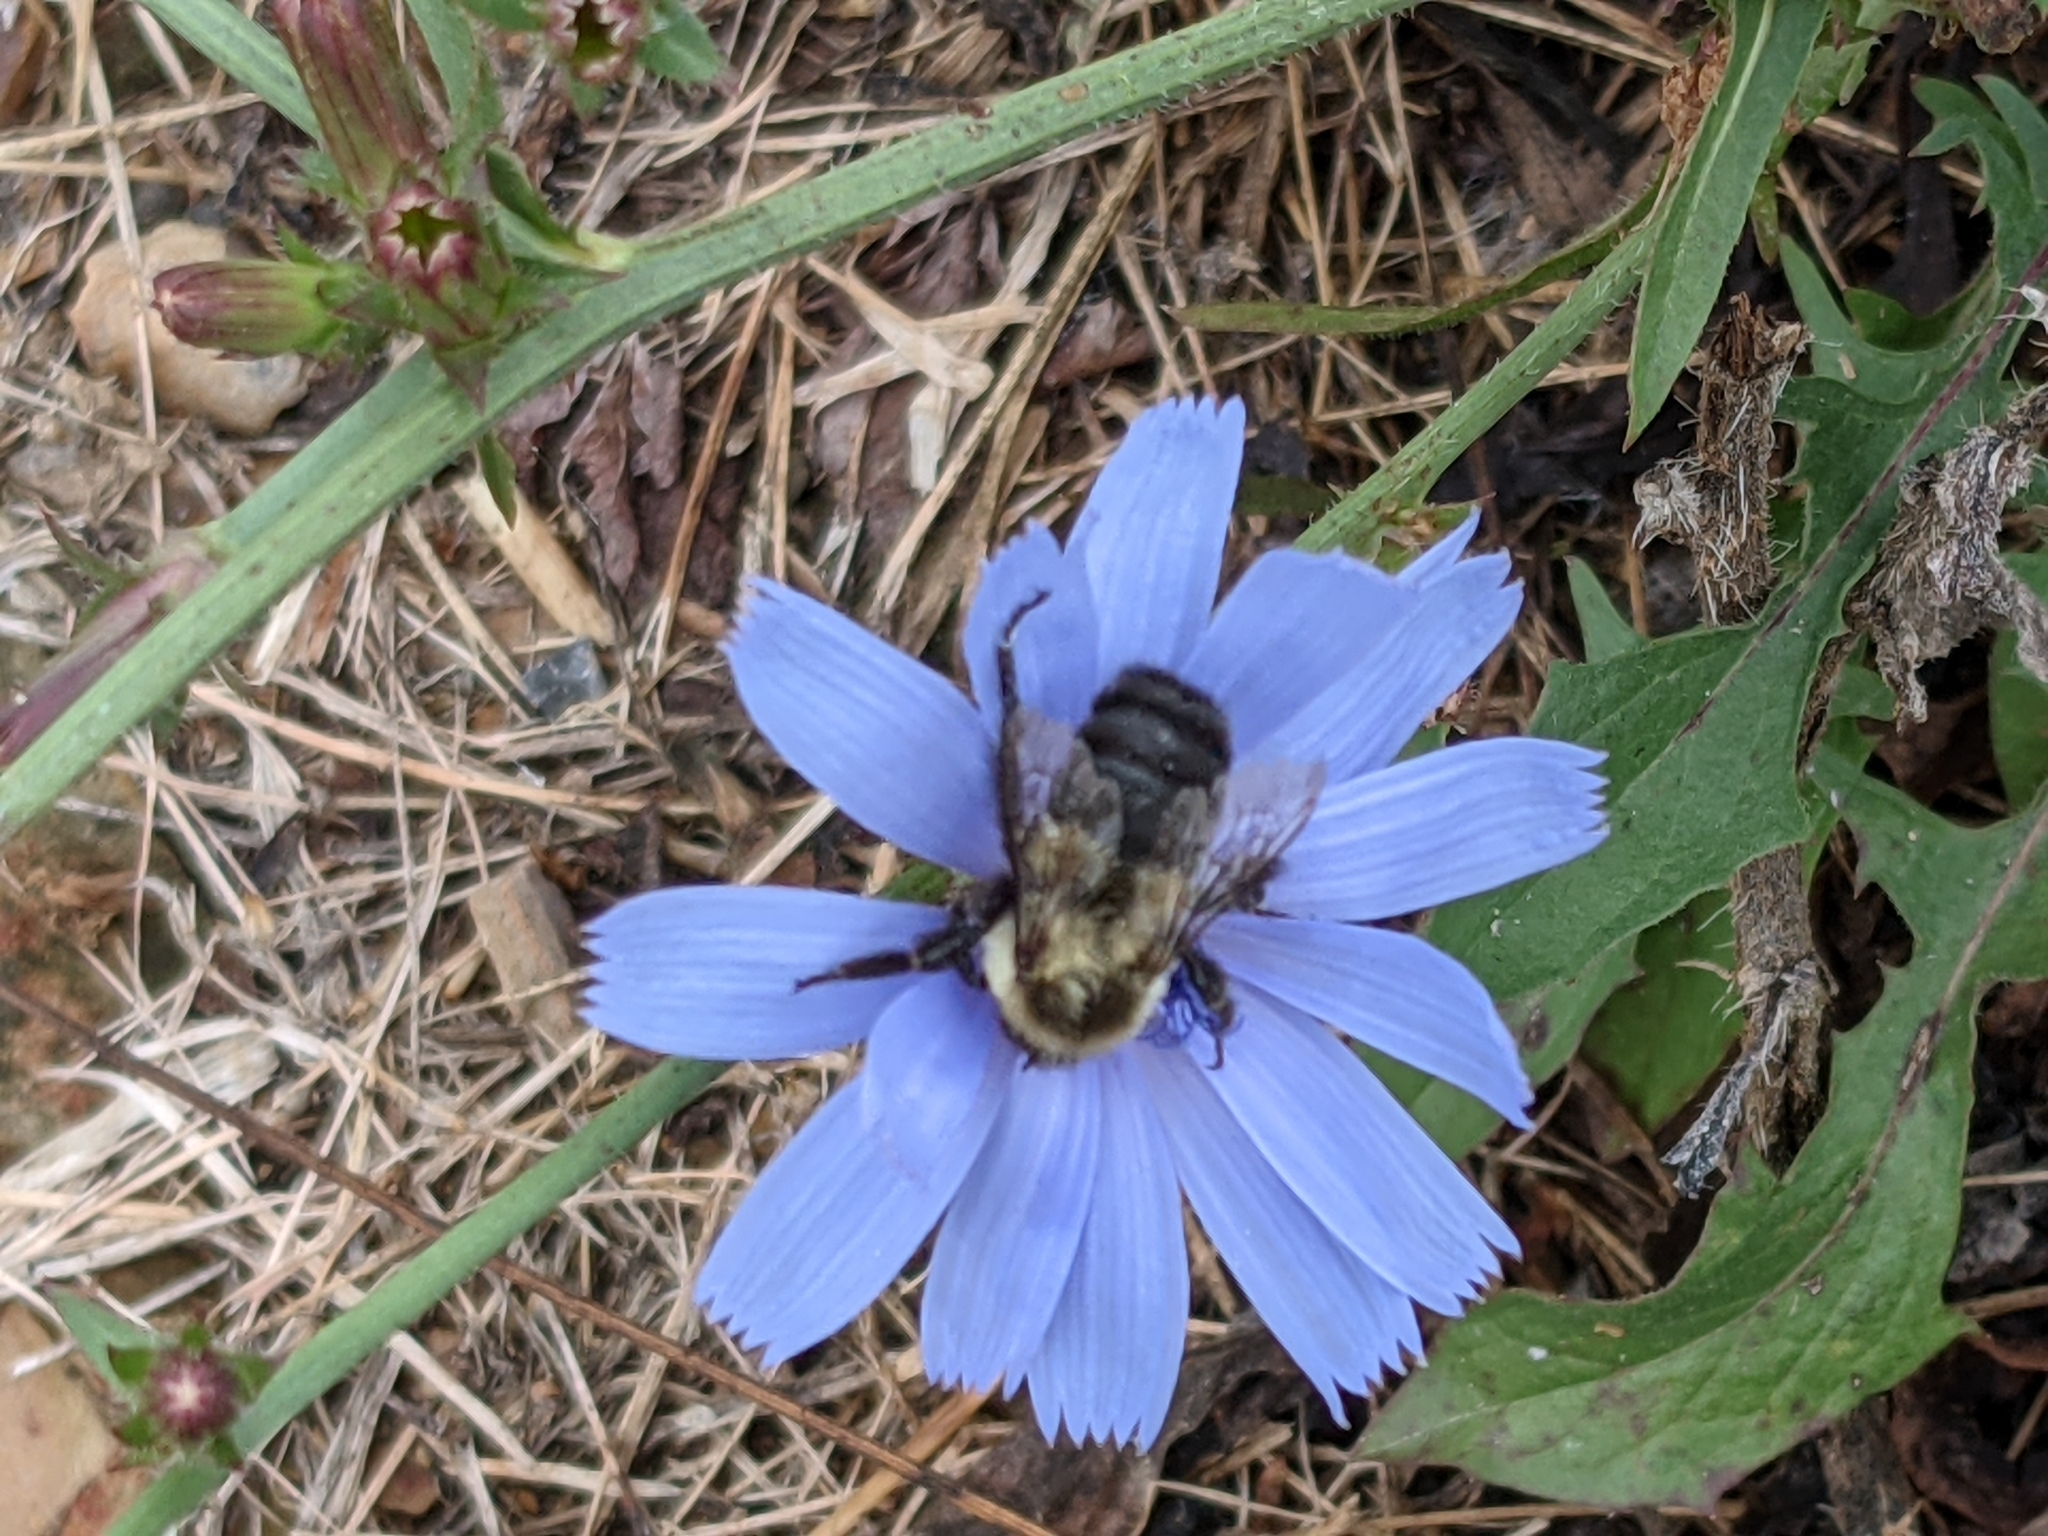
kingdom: Animalia
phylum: Arthropoda
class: Insecta
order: Hymenoptera
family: Apidae
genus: Bombus
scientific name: Bombus impatiens
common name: Common eastern bumble bee
